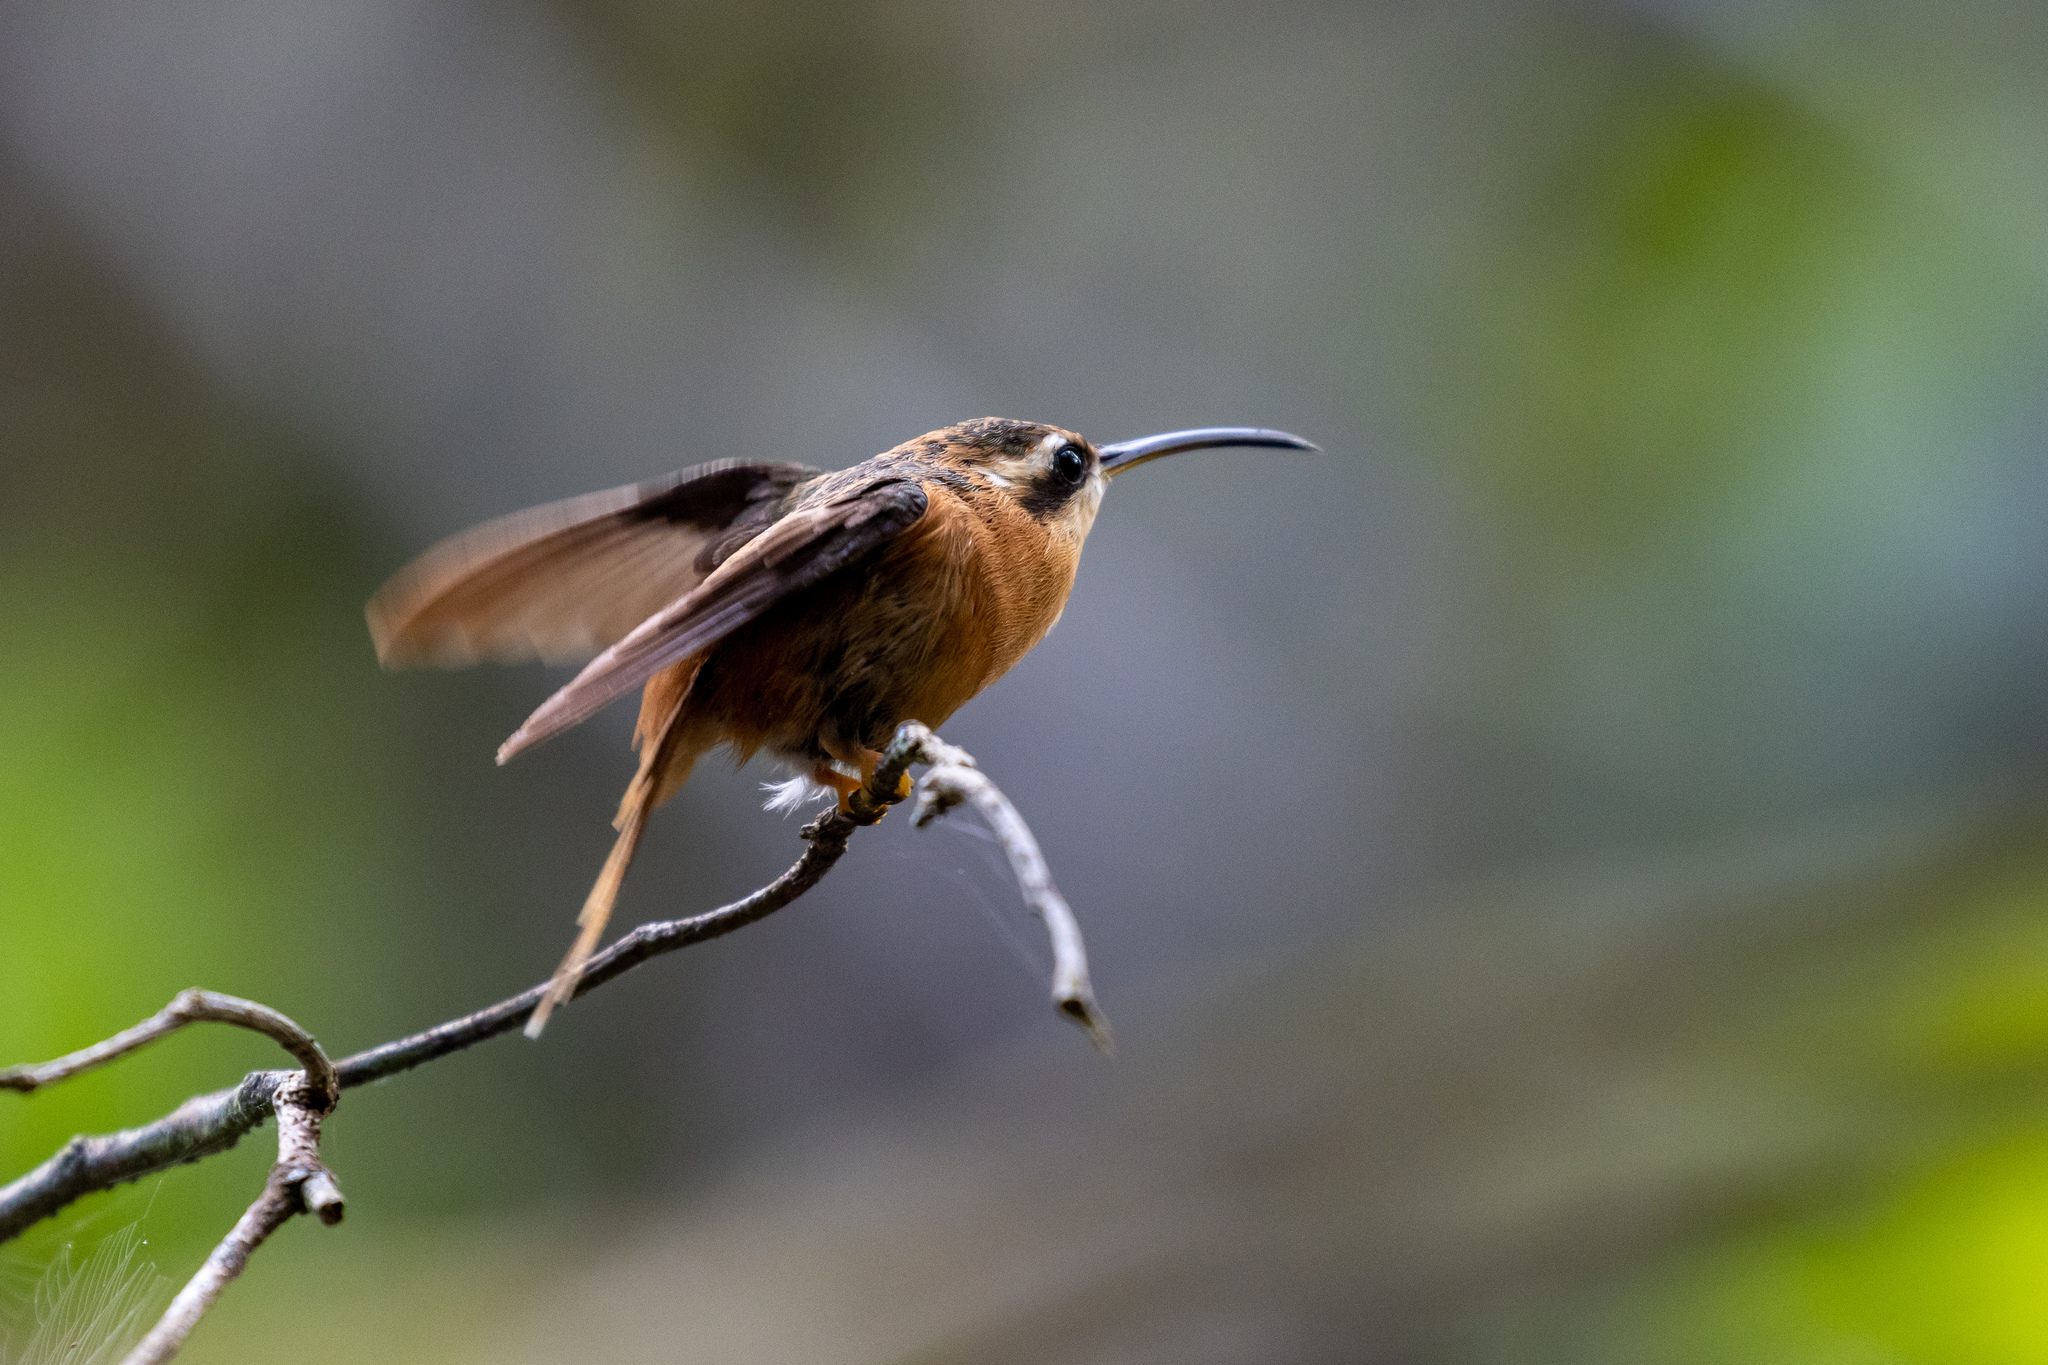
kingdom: Animalia
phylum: Chordata
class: Aves
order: Apodiformes
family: Trochilidae
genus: Phaethornis
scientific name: Phaethornis ruber
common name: Reddish hermit
